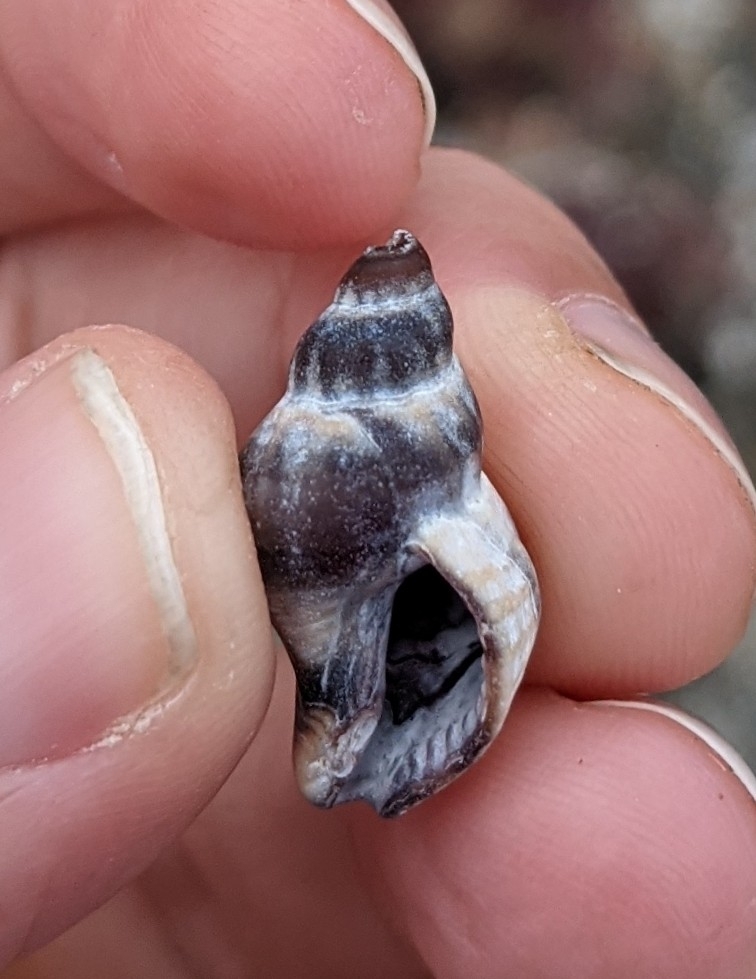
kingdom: Animalia
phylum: Mollusca
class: Gastropoda
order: Neogastropoda
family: Muricidae
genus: Urosalpinx
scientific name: Urosalpinx cinerea
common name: American sting winkle
